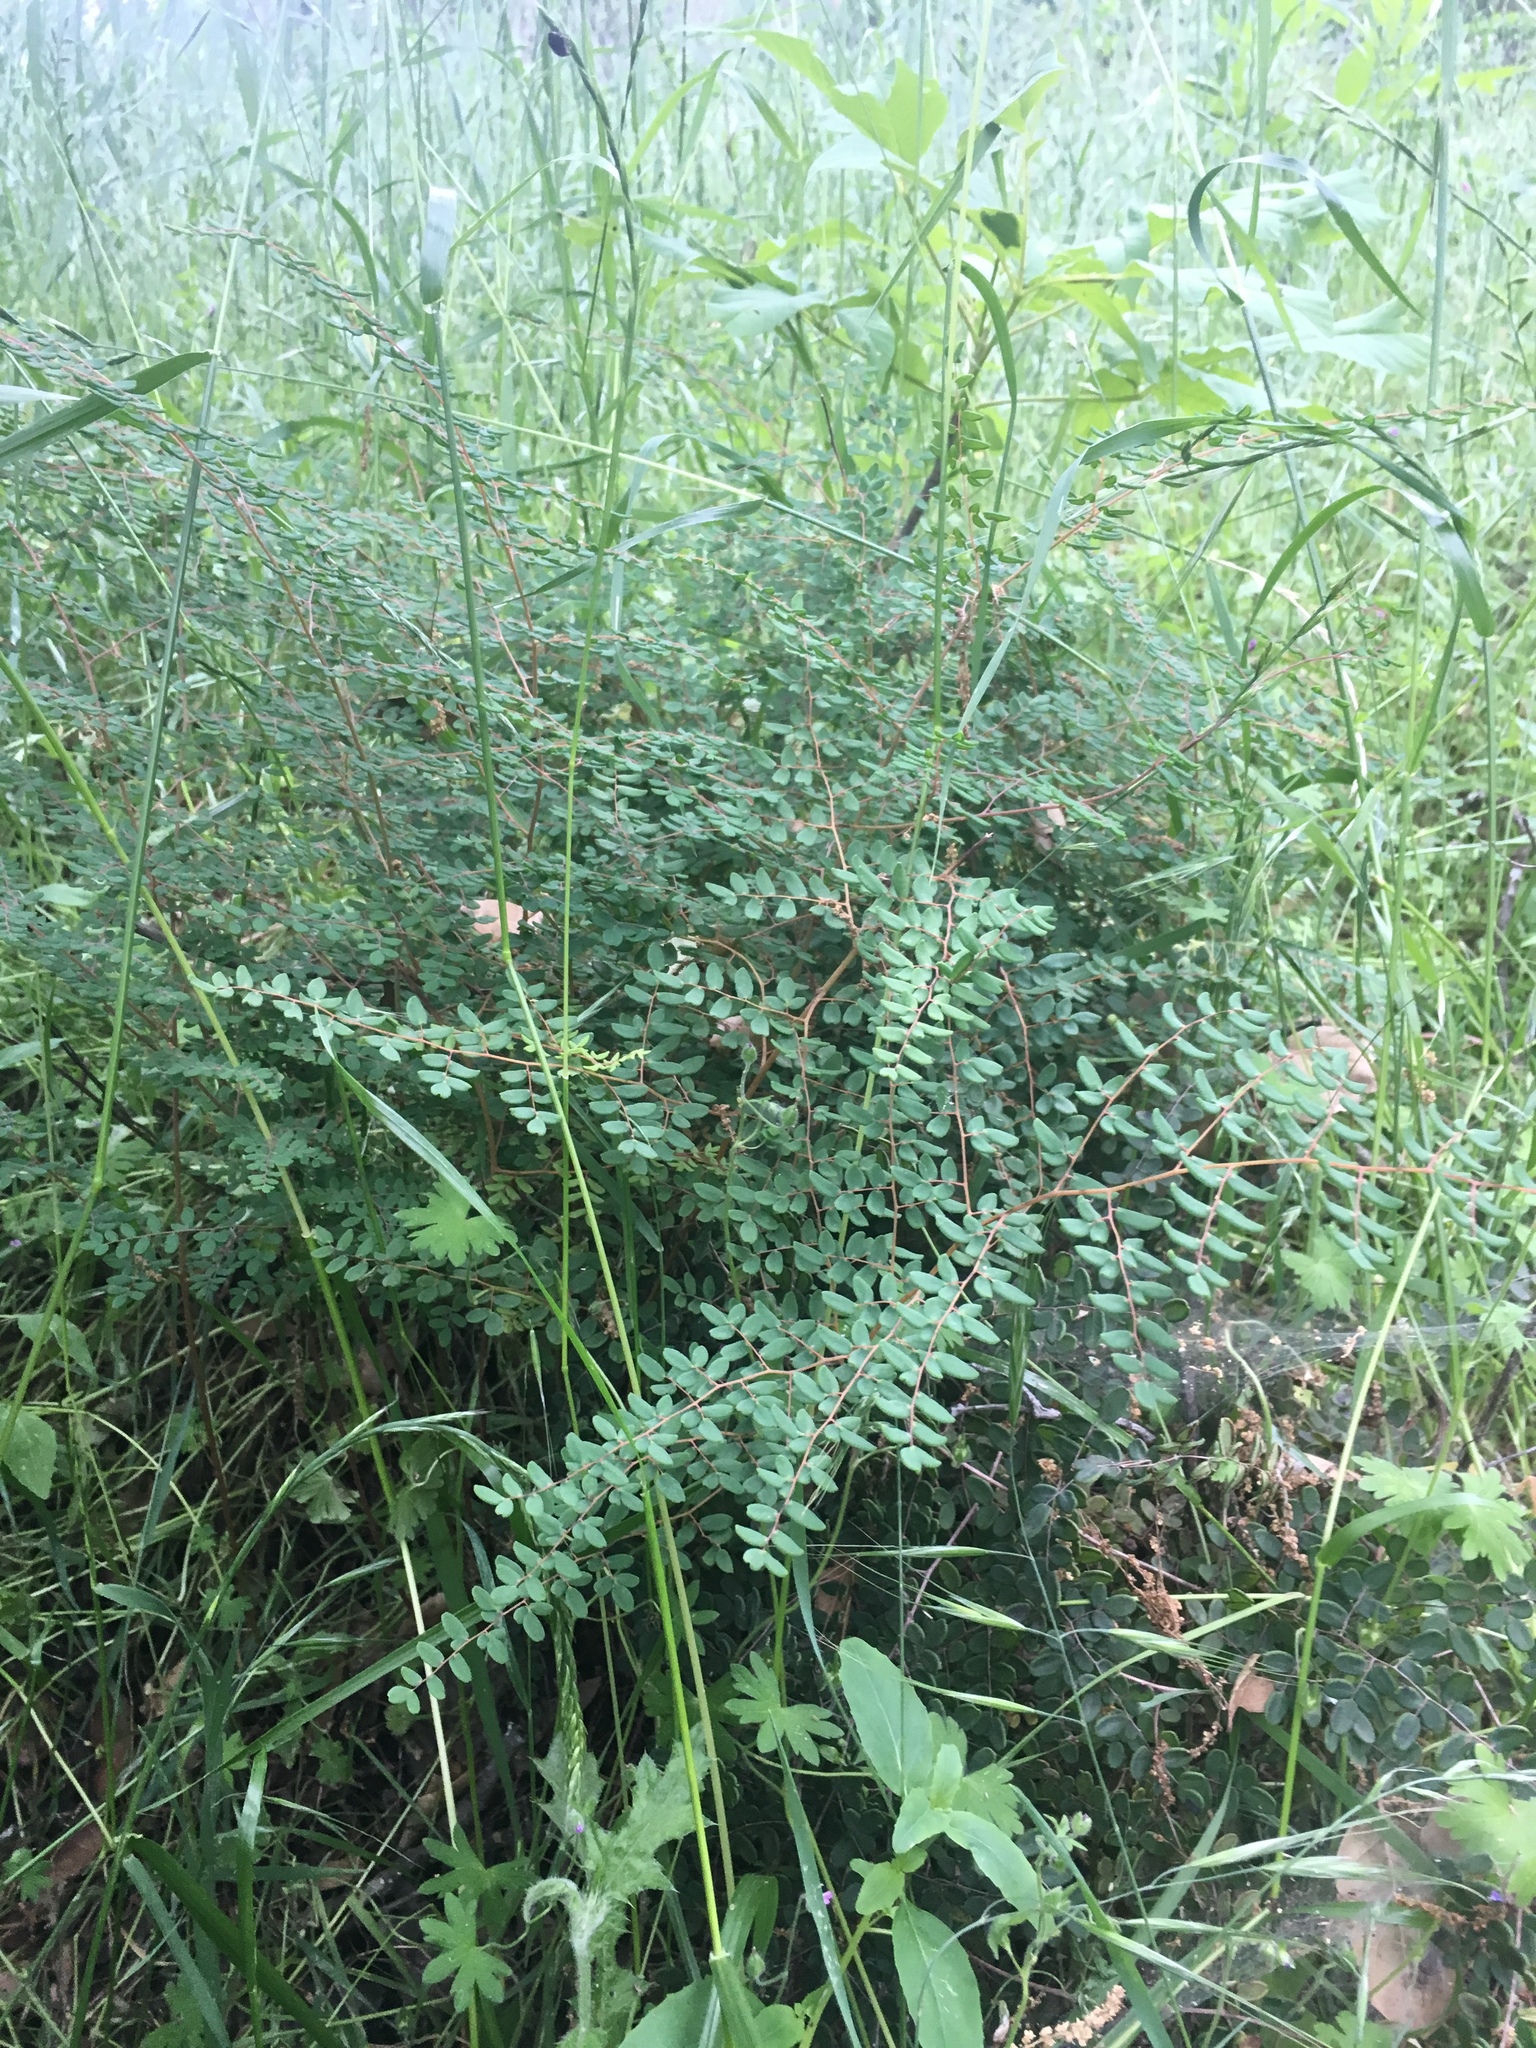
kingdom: Plantae
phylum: Tracheophyta
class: Polypodiopsida
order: Polypodiales
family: Pteridaceae
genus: Pellaea
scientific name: Pellaea andromedifolia
